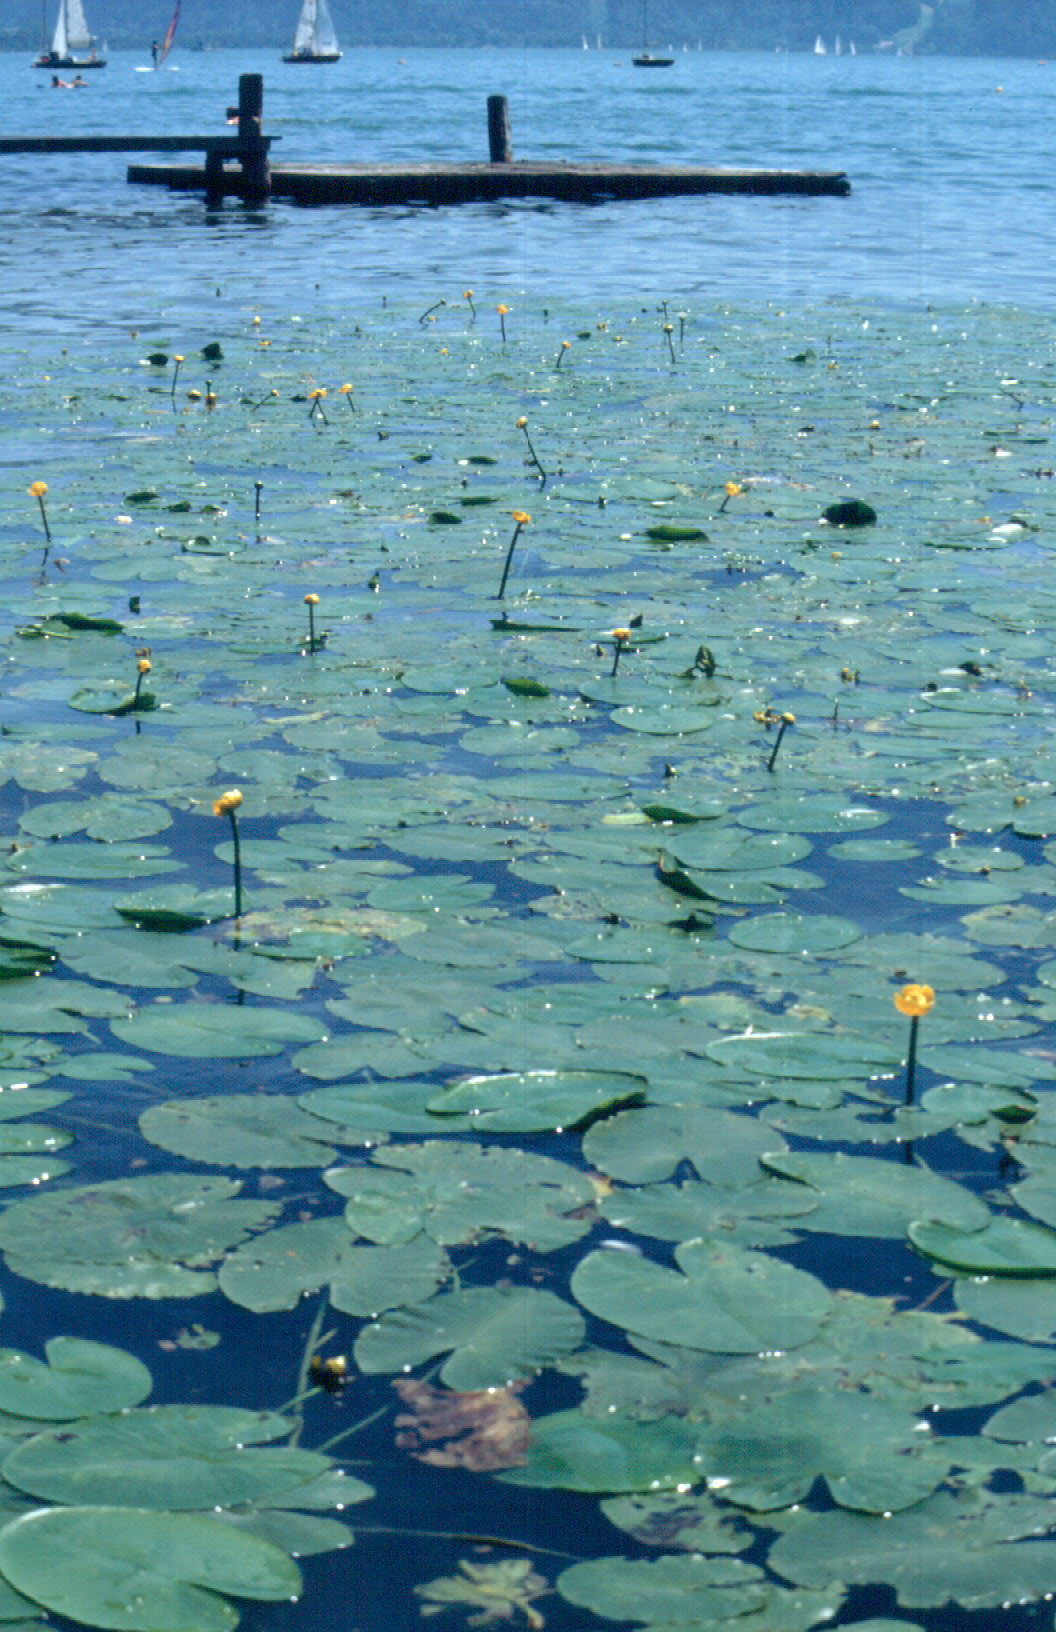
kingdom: Plantae
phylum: Tracheophyta
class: Magnoliopsida
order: Nymphaeales
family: Nymphaeaceae
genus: Nuphar
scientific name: Nuphar lutea
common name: Yellow water-lily
